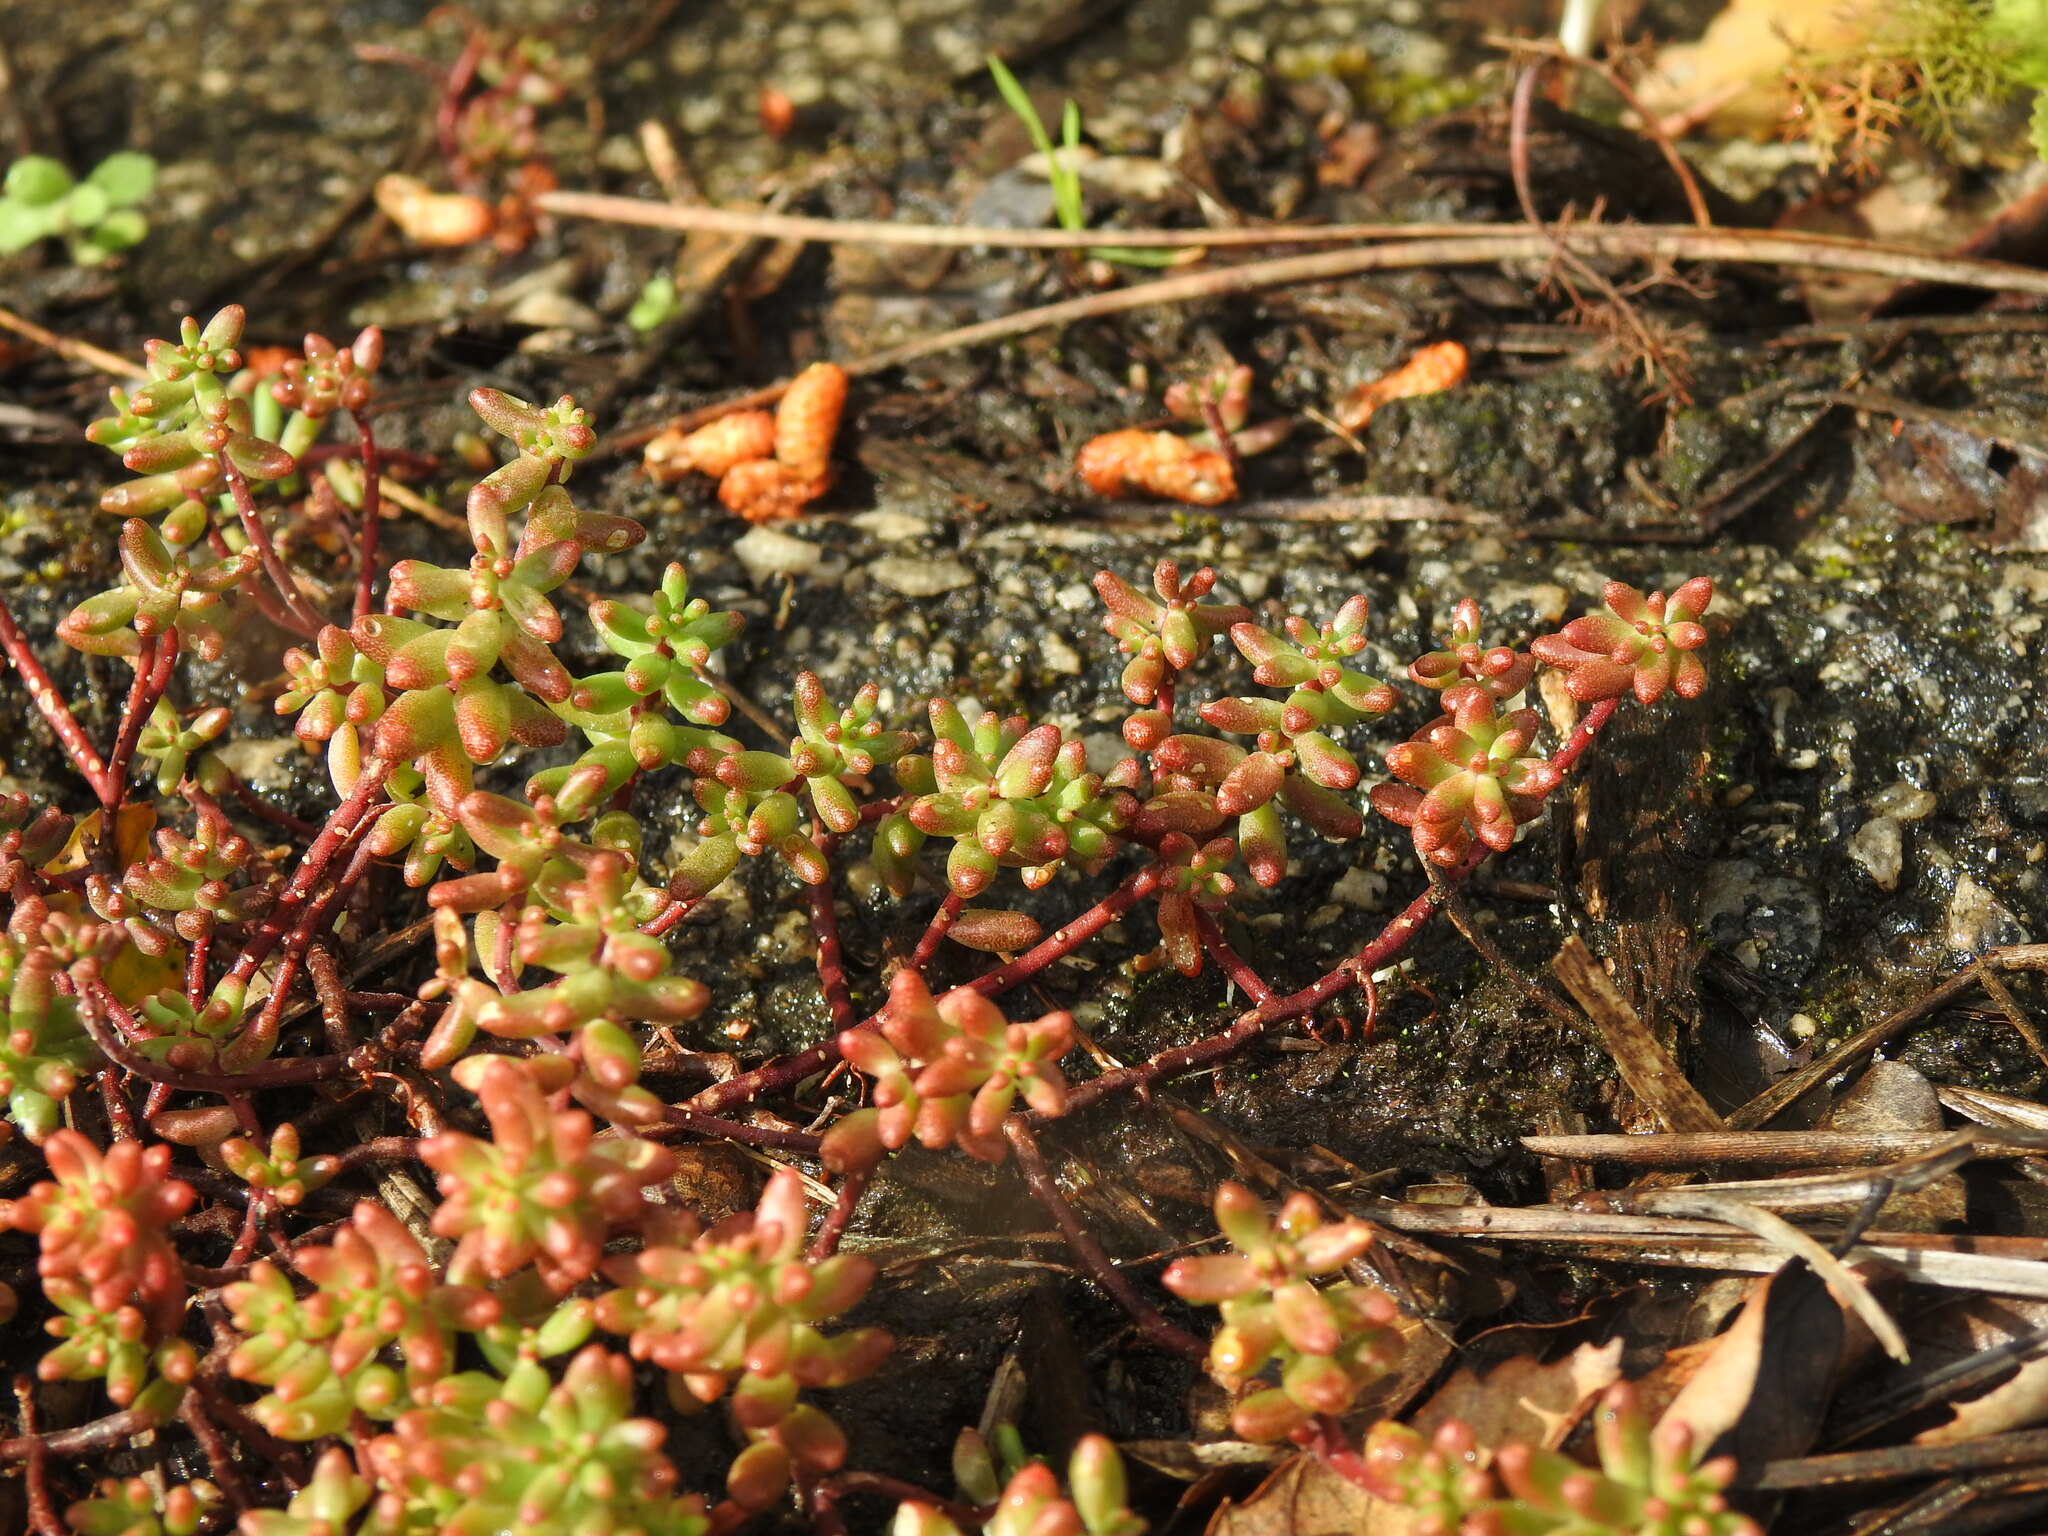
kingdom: Plantae
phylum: Tracheophyta
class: Magnoliopsida
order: Saxifragales
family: Crassulaceae
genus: Sedum
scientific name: Sedum album
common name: White stonecrop
